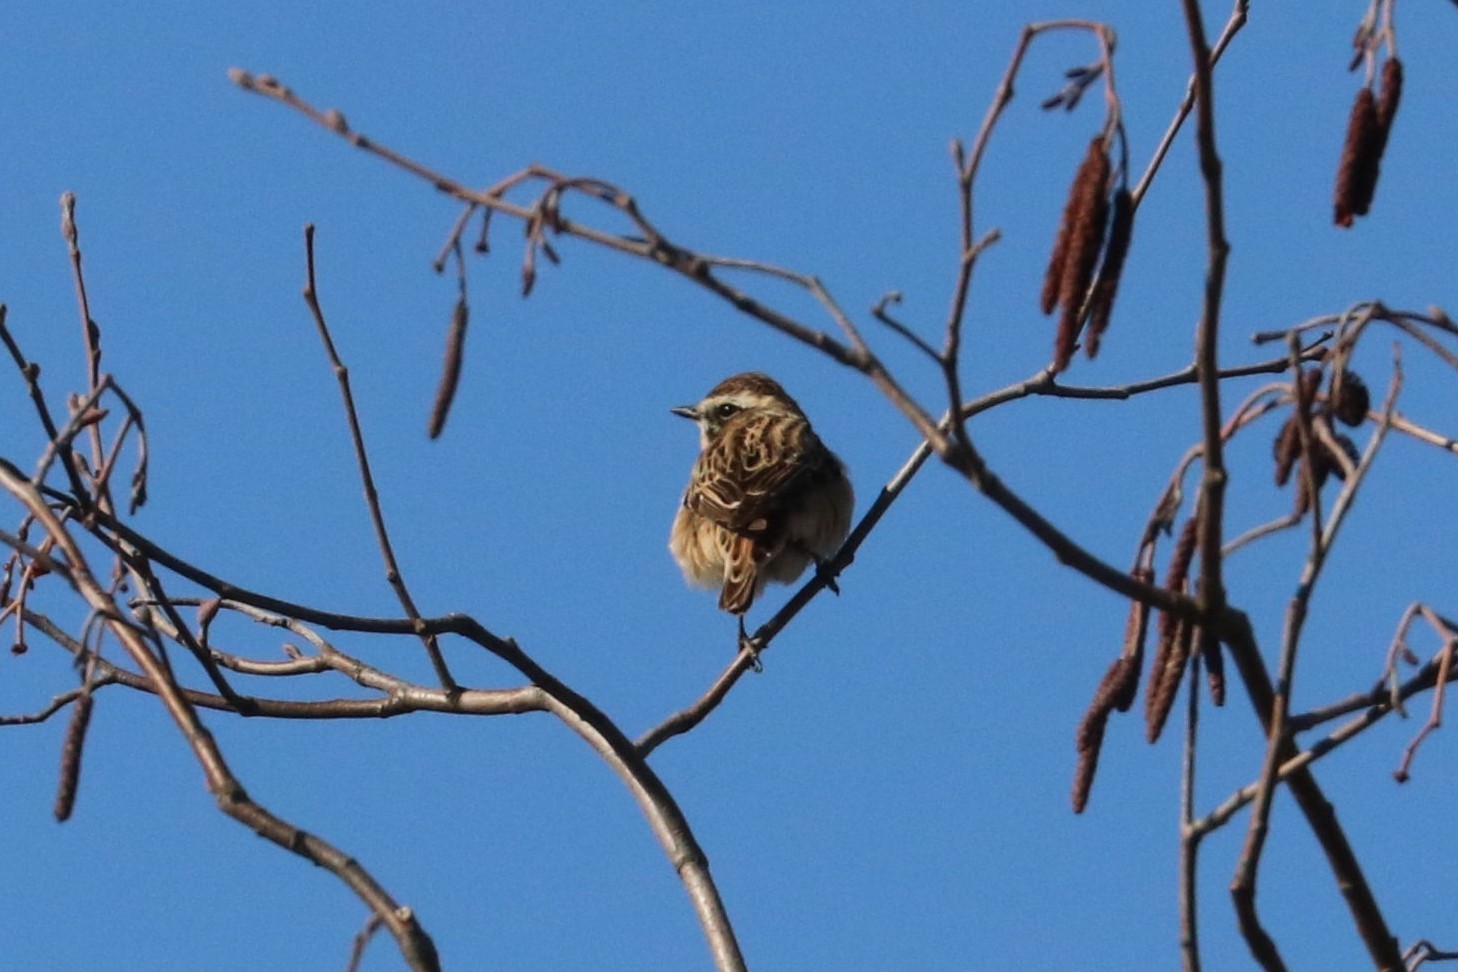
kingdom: Animalia
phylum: Chordata
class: Aves
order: Passeriformes
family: Muscicapidae
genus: Saxicola
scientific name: Saxicola rubetra
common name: Whinchat
